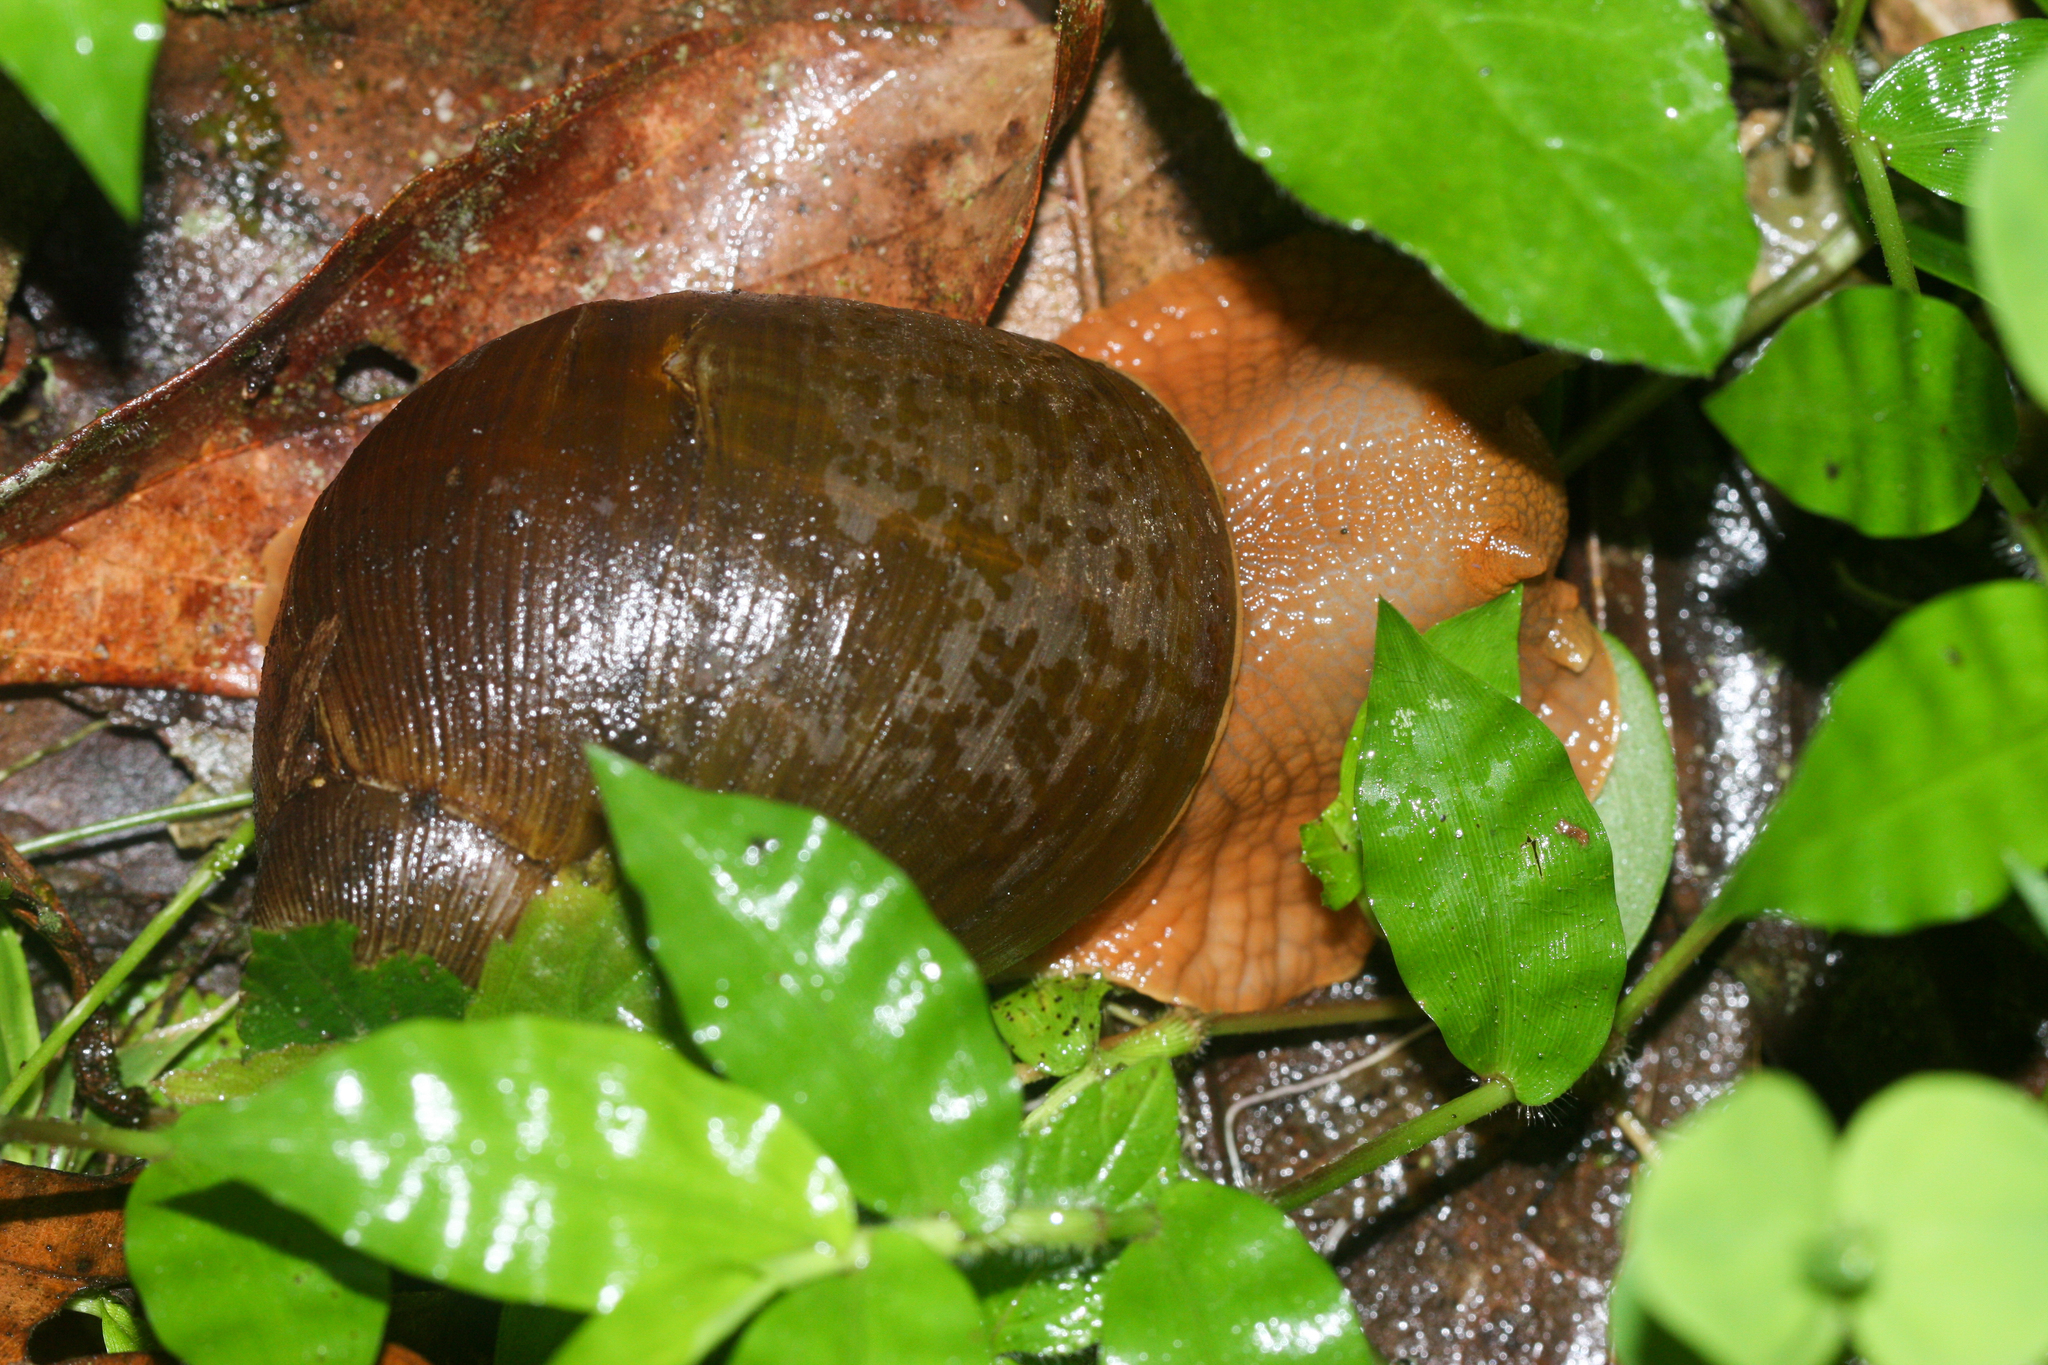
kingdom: Animalia
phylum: Mollusca
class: Gastropoda
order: Stylommatophora
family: Strophocheilidae
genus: Megalobulimus
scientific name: Megalobulimus popelairianus
